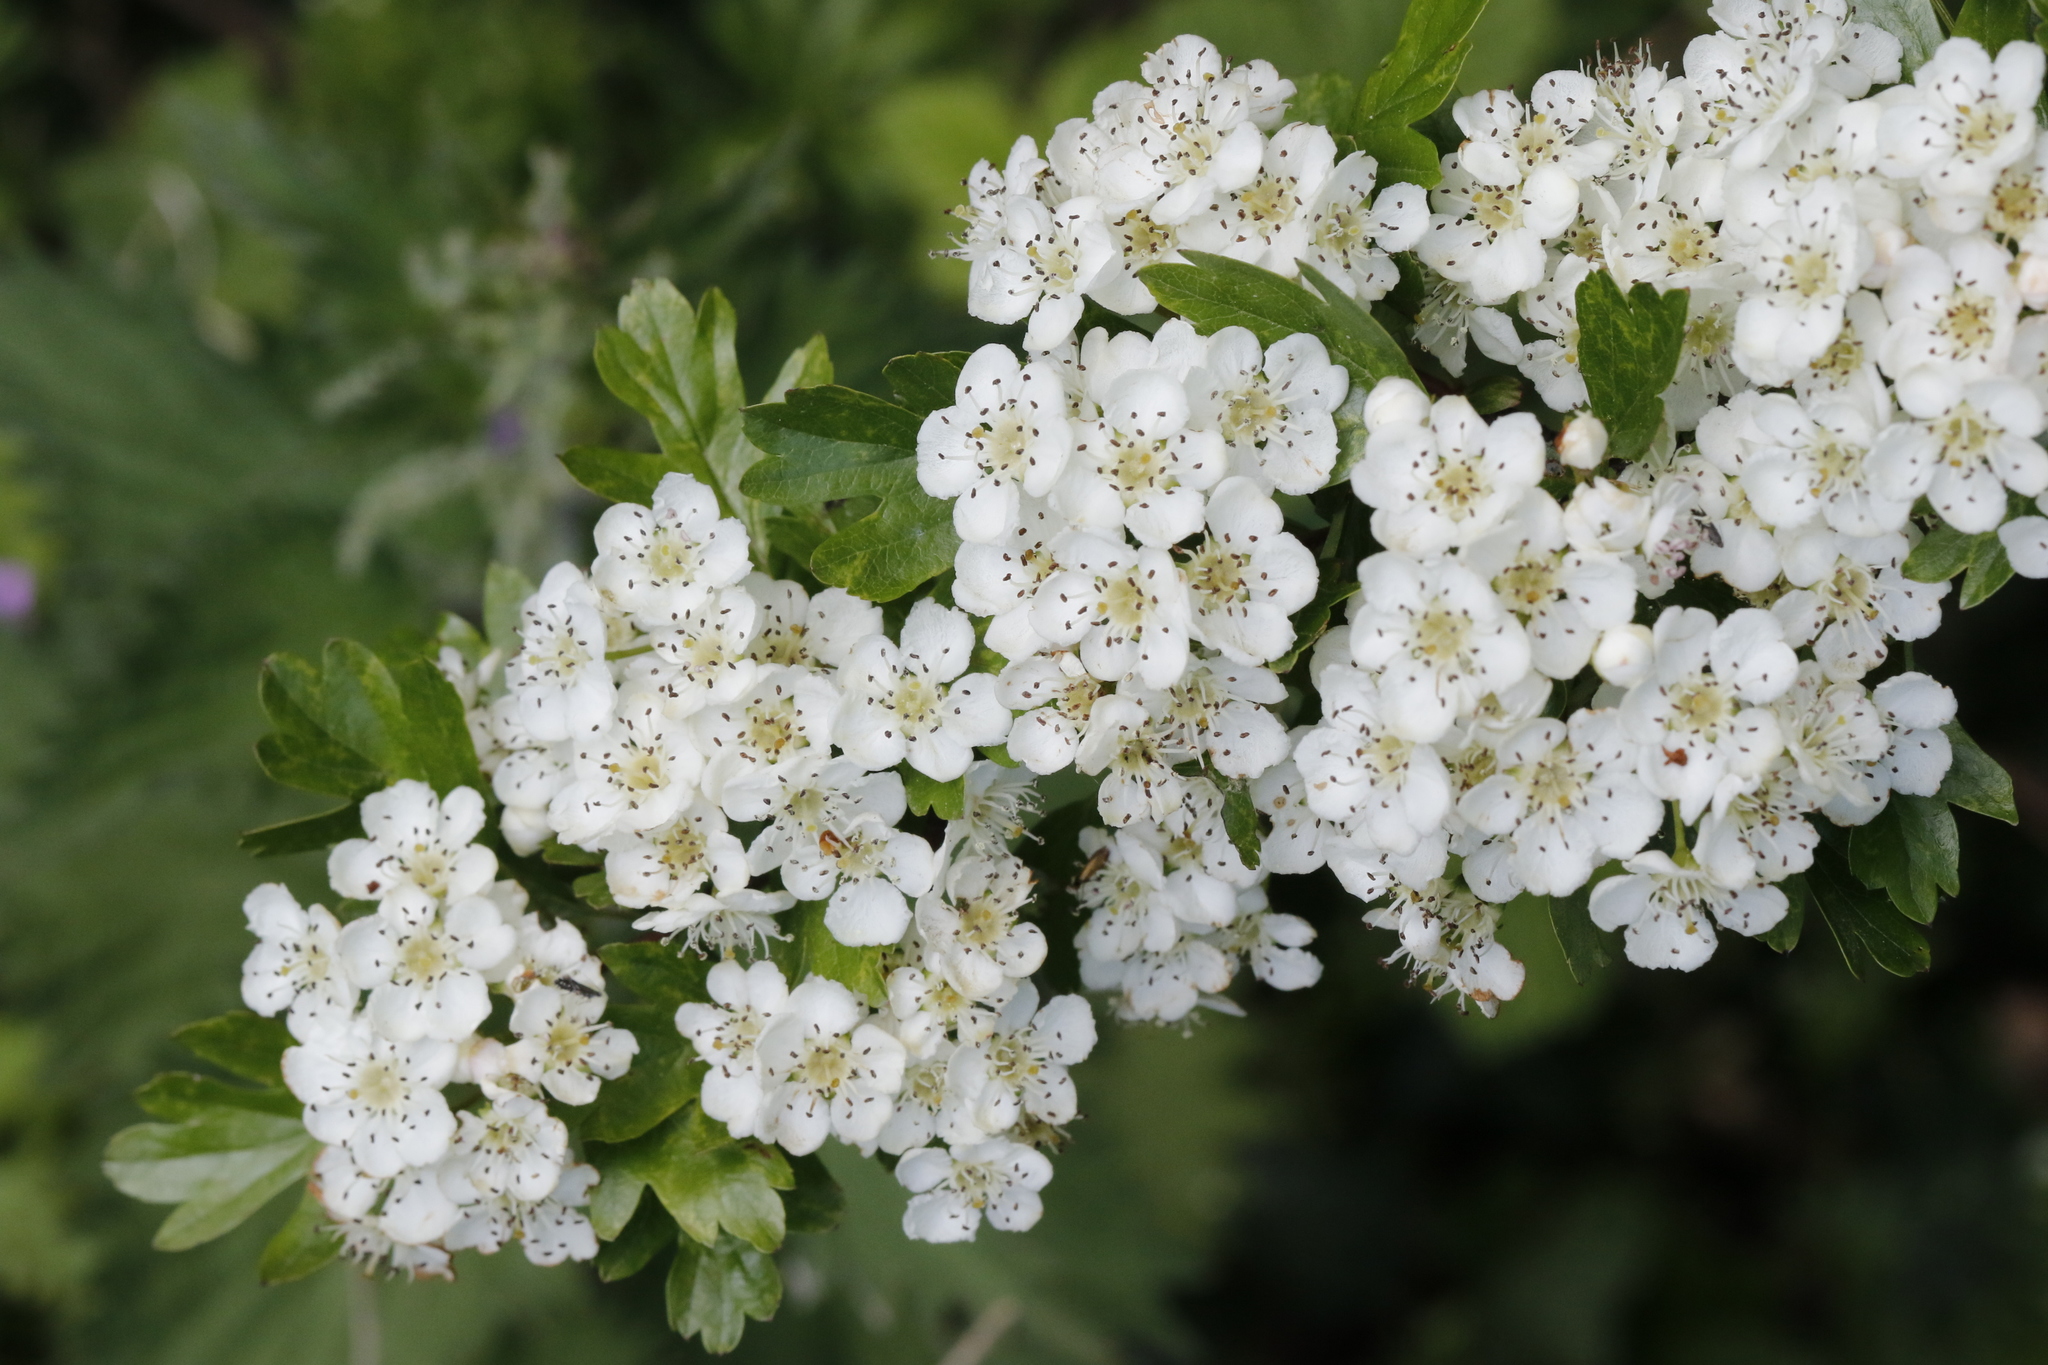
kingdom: Plantae
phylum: Tracheophyta
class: Magnoliopsida
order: Rosales
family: Rosaceae
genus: Crataegus
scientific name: Crataegus monogyna
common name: Hawthorn
